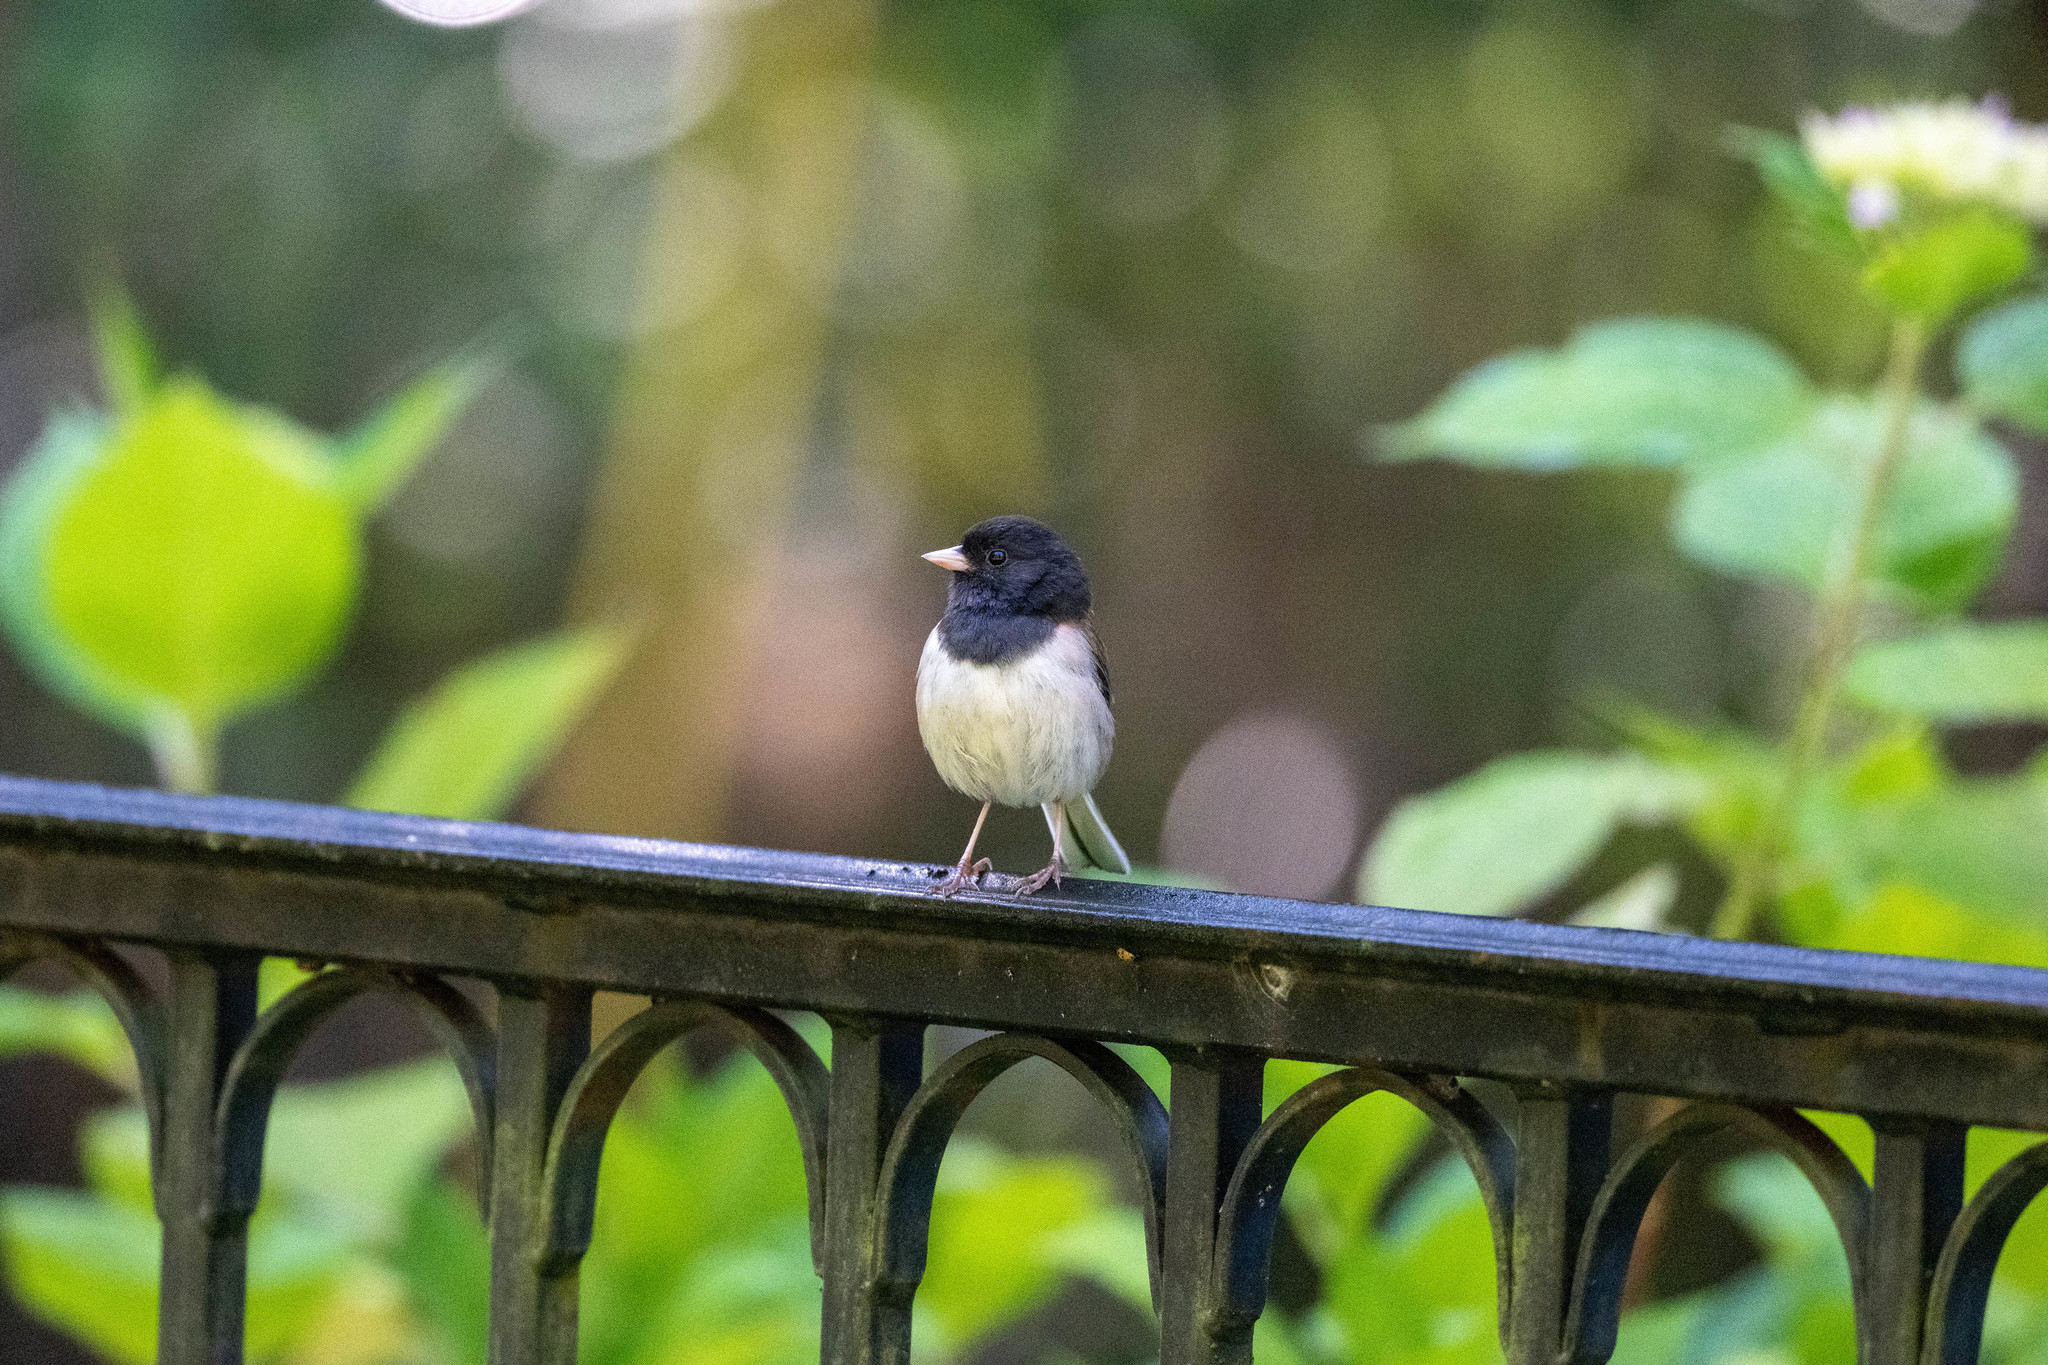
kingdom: Animalia
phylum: Chordata
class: Aves
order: Passeriformes
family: Passerellidae
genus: Junco
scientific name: Junco hyemalis
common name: Dark-eyed junco
